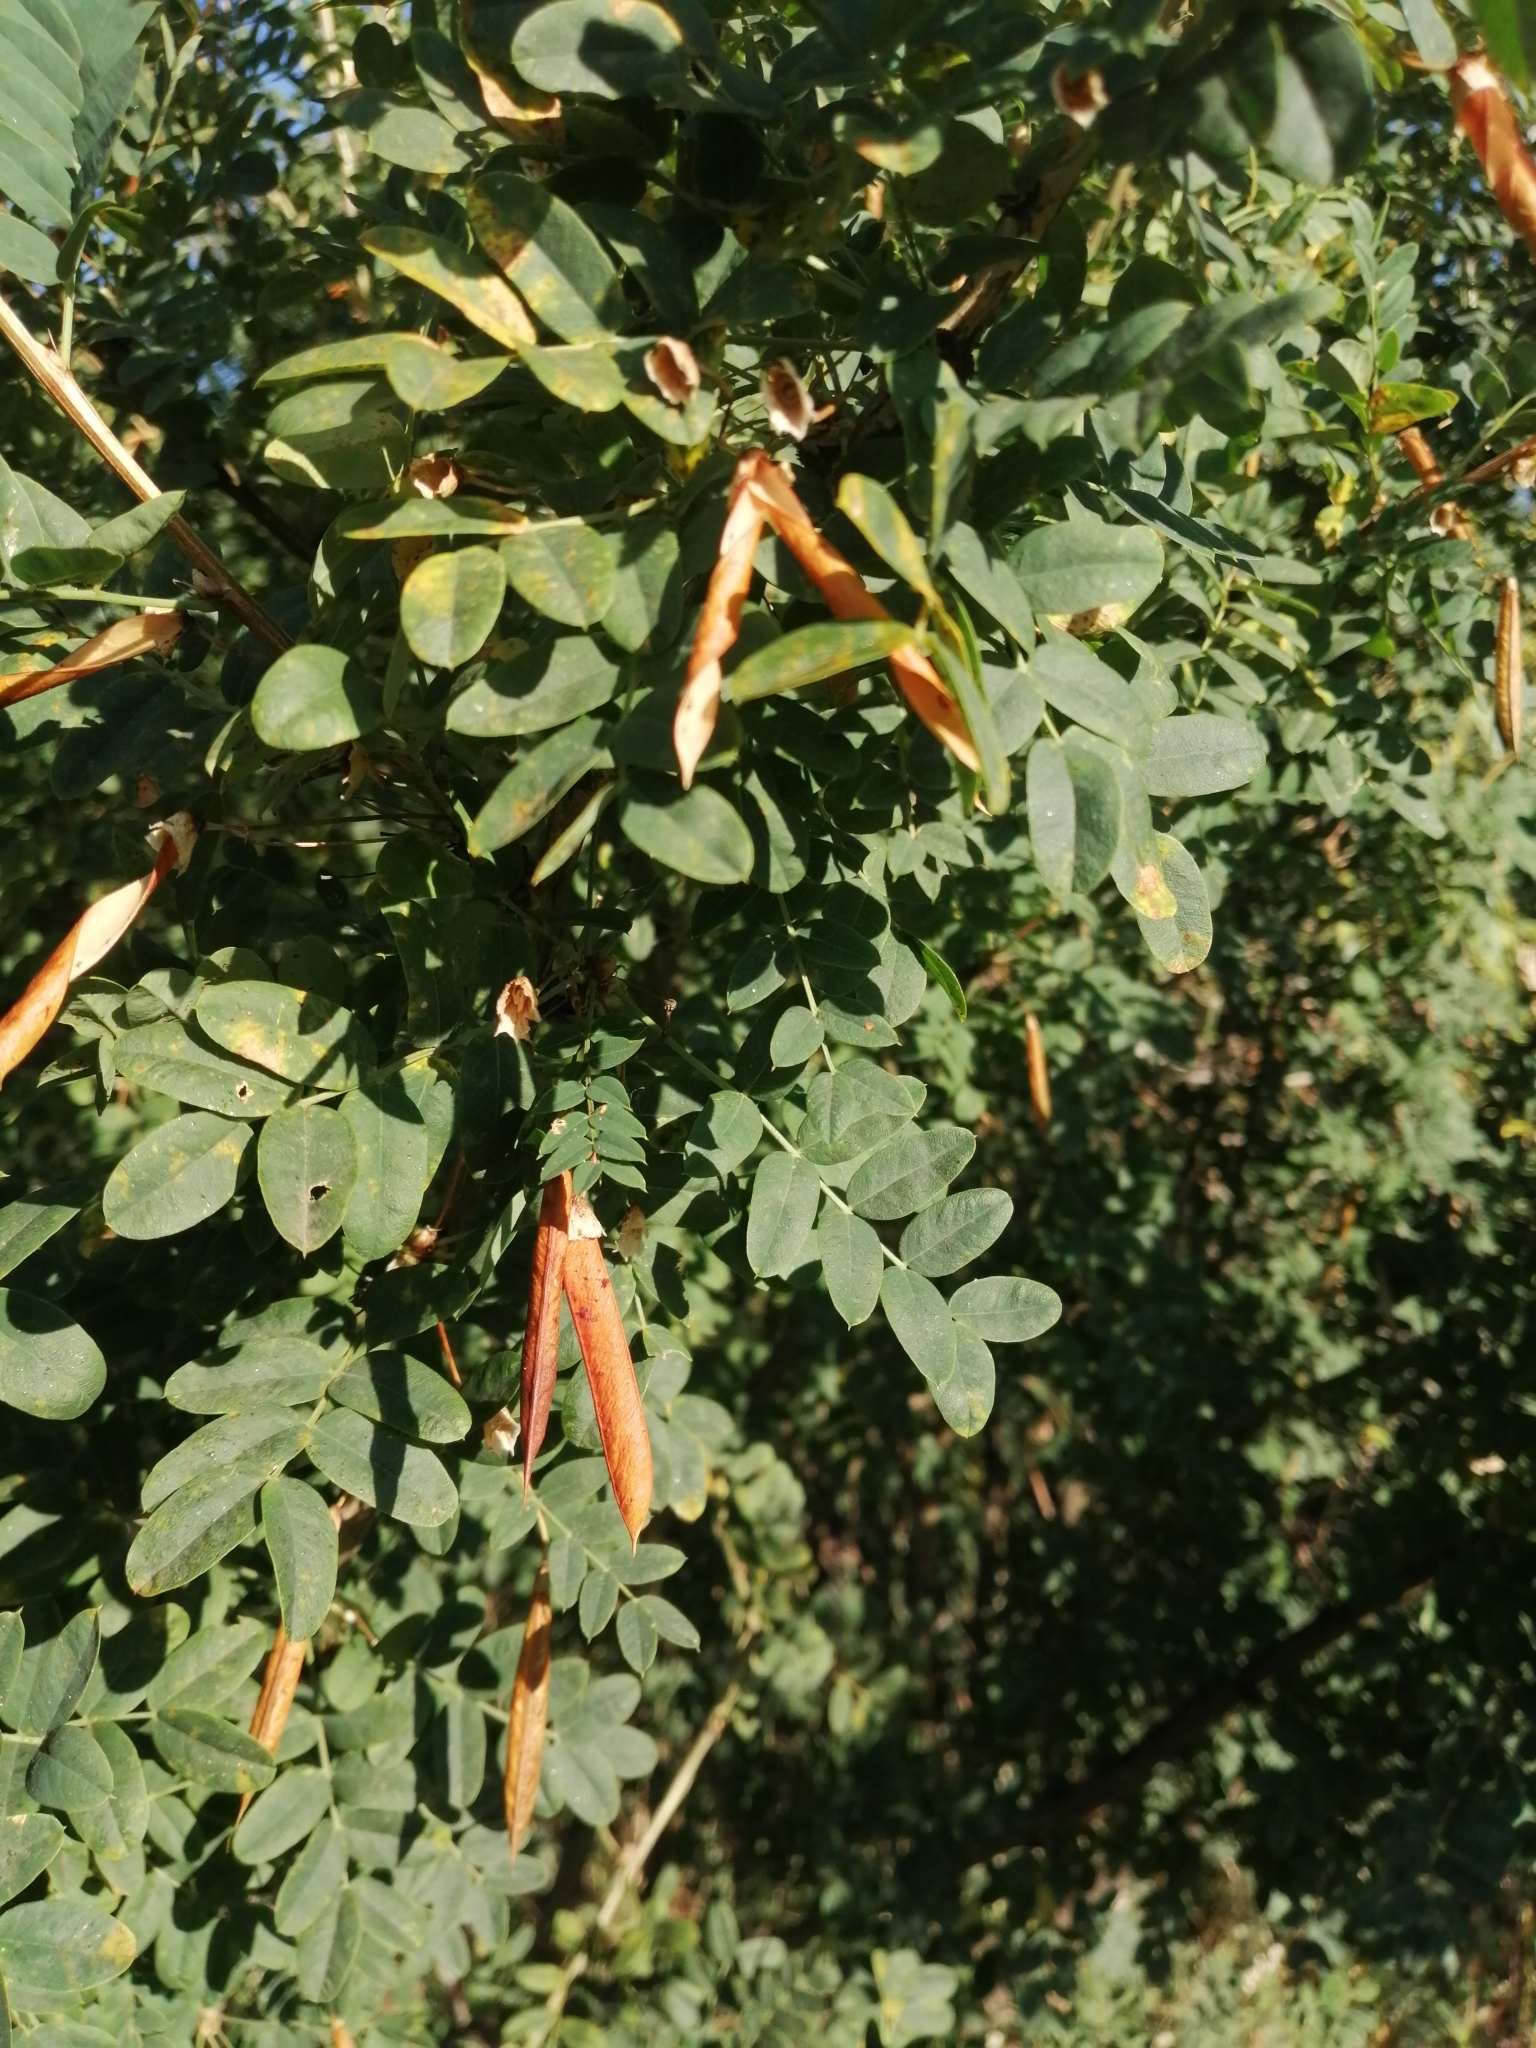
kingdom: Plantae
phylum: Tracheophyta
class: Magnoliopsida
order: Fabales
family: Fabaceae
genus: Caragana
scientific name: Caragana arborescens
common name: Siberian peashrub
